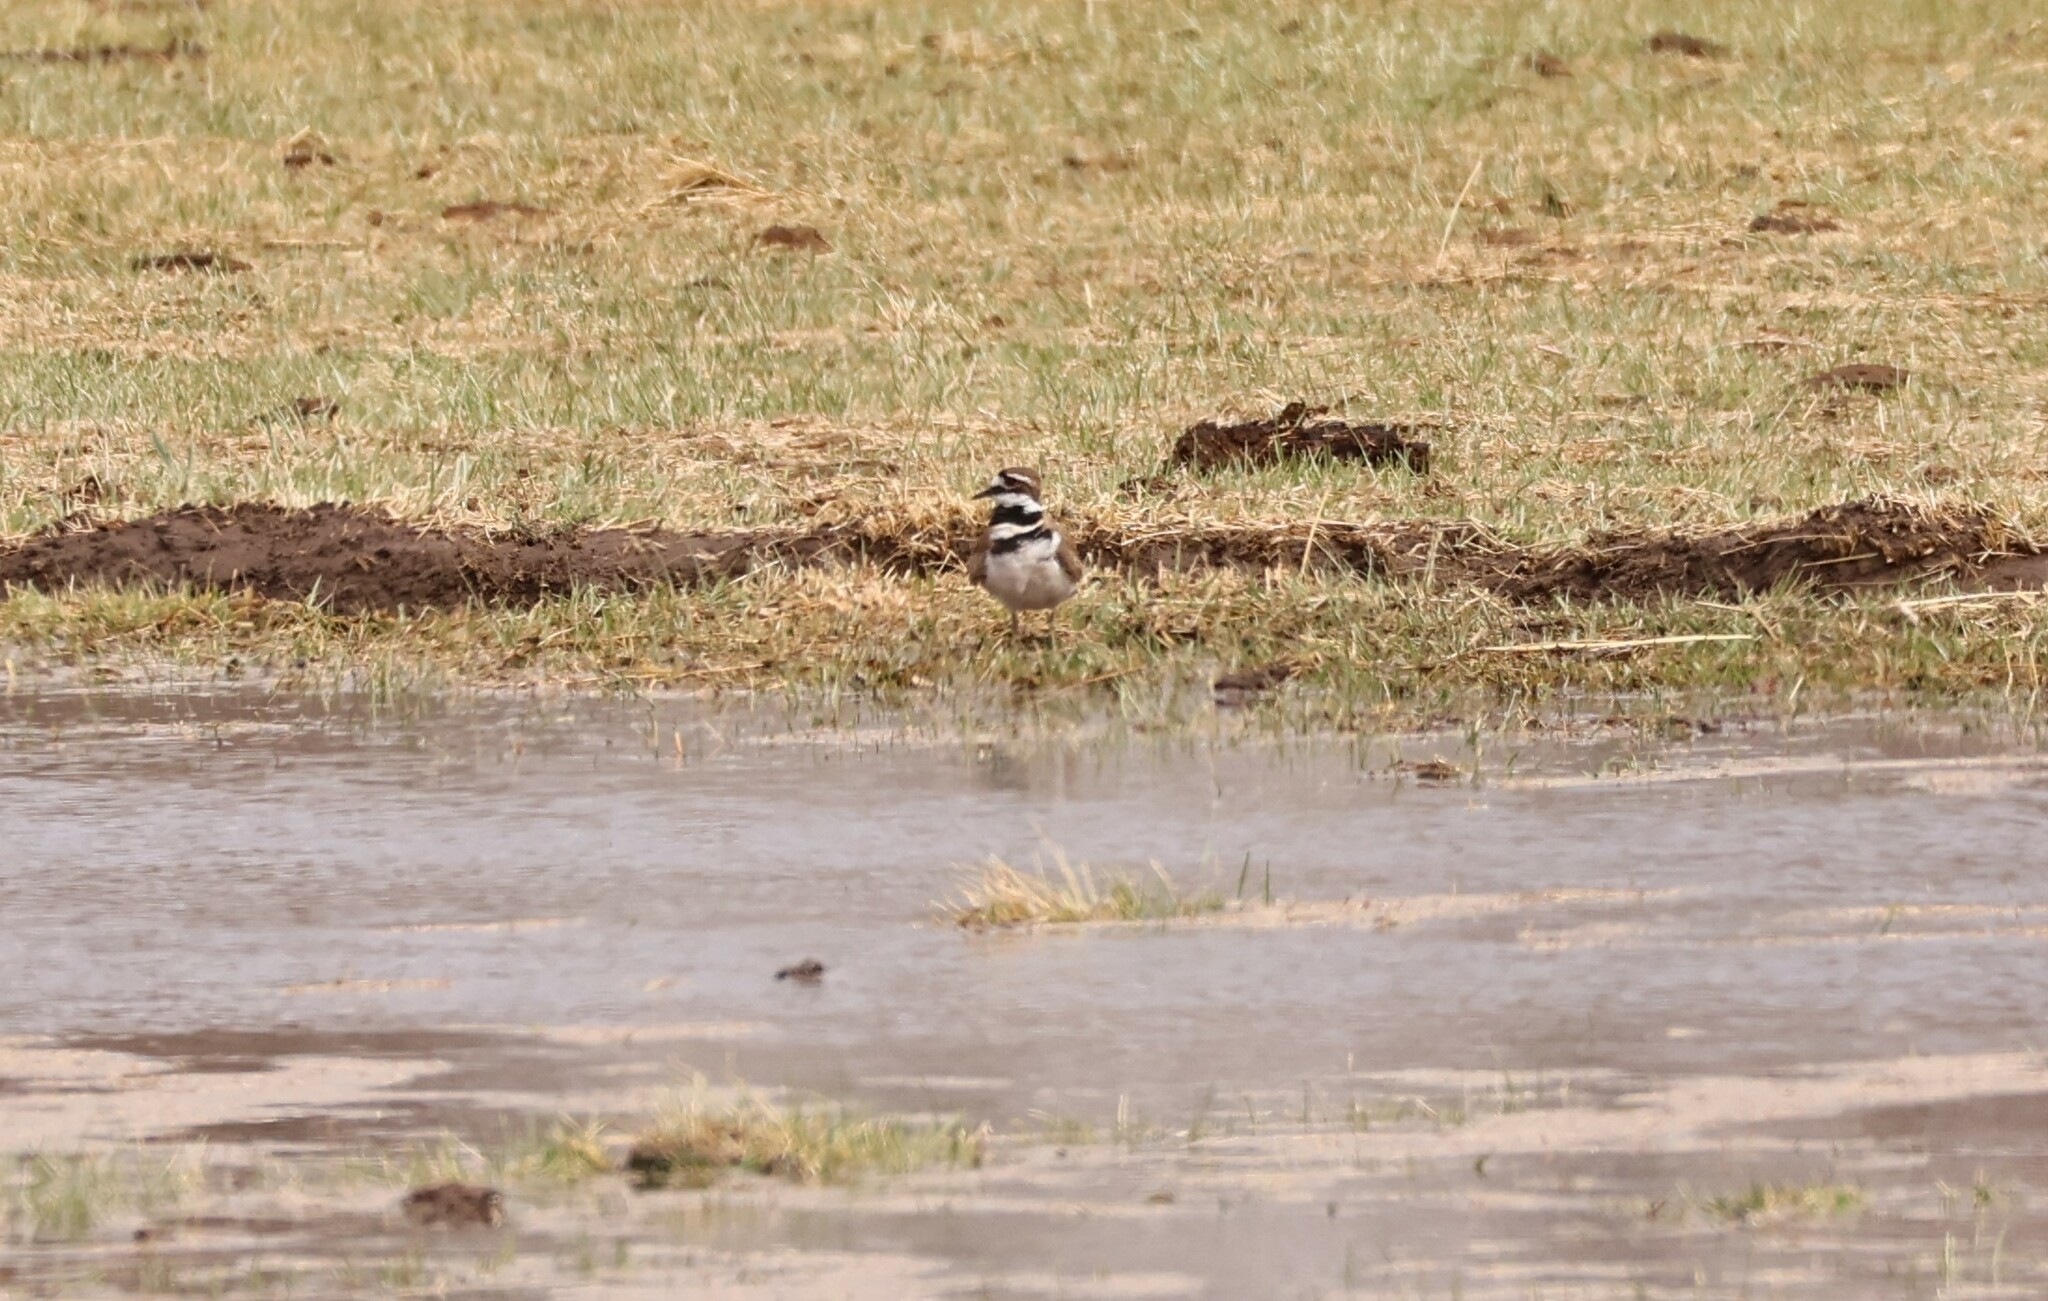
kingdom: Animalia
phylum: Chordata
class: Aves
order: Charadriiformes
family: Charadriidae
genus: Charadrius
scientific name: Charadrius vociferus
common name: Killdeer
